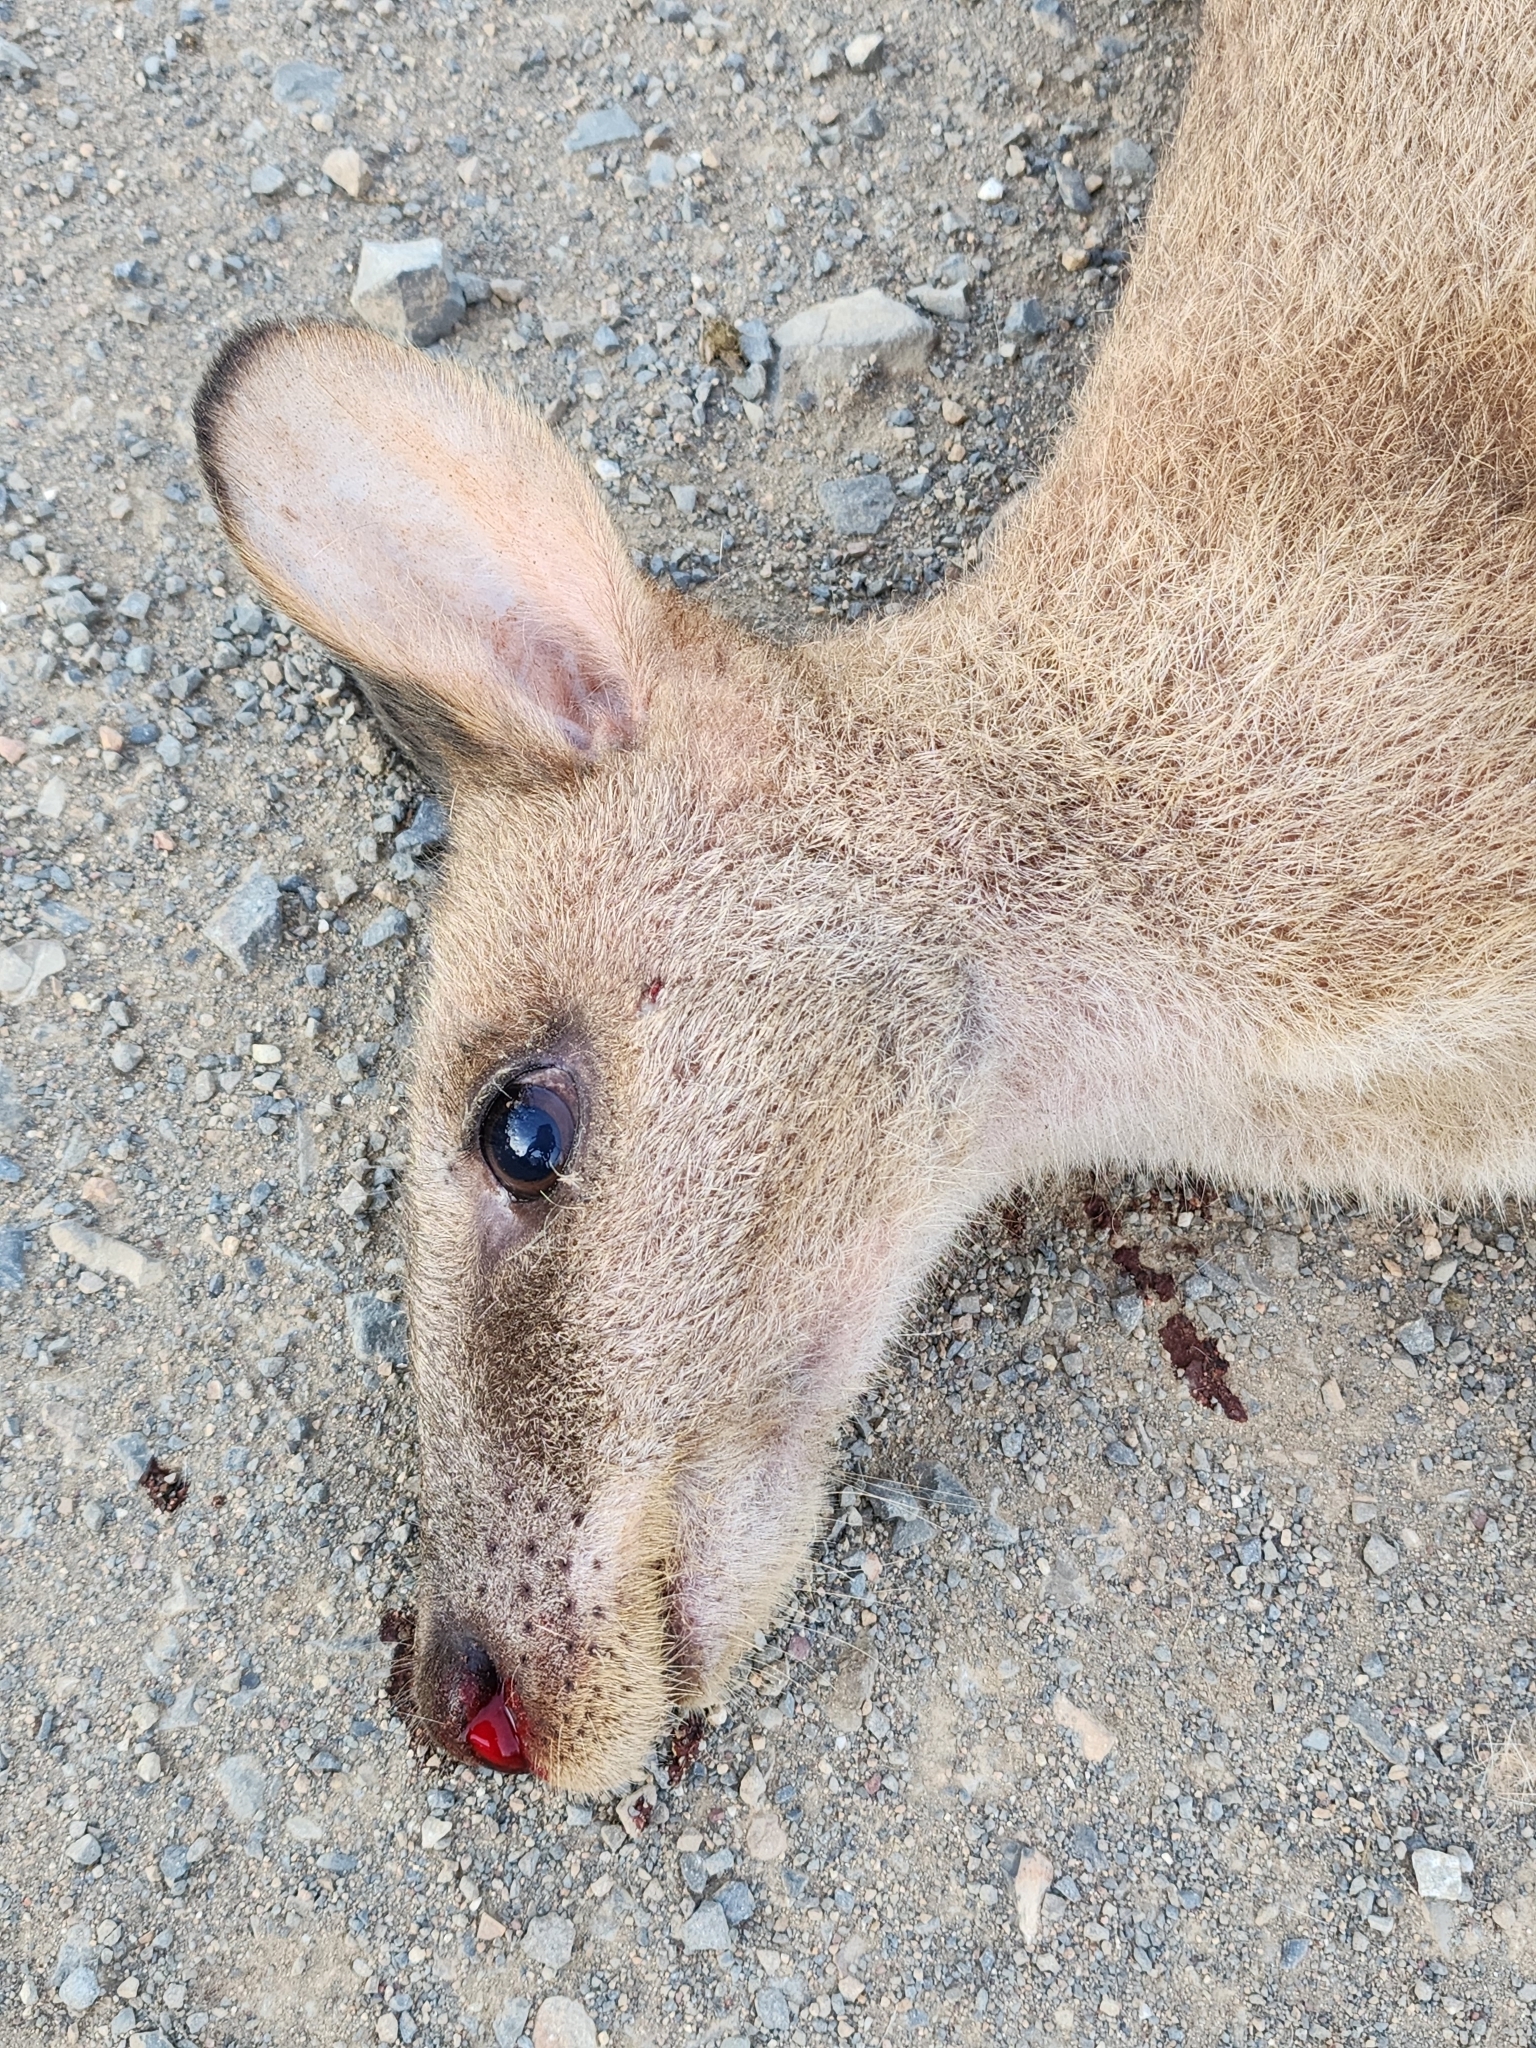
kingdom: Animalia
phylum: Chordata
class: Mammalia
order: Diprotodontia
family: Macropodidae
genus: Macropus
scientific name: Macropus agilis
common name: Agile wallaby
